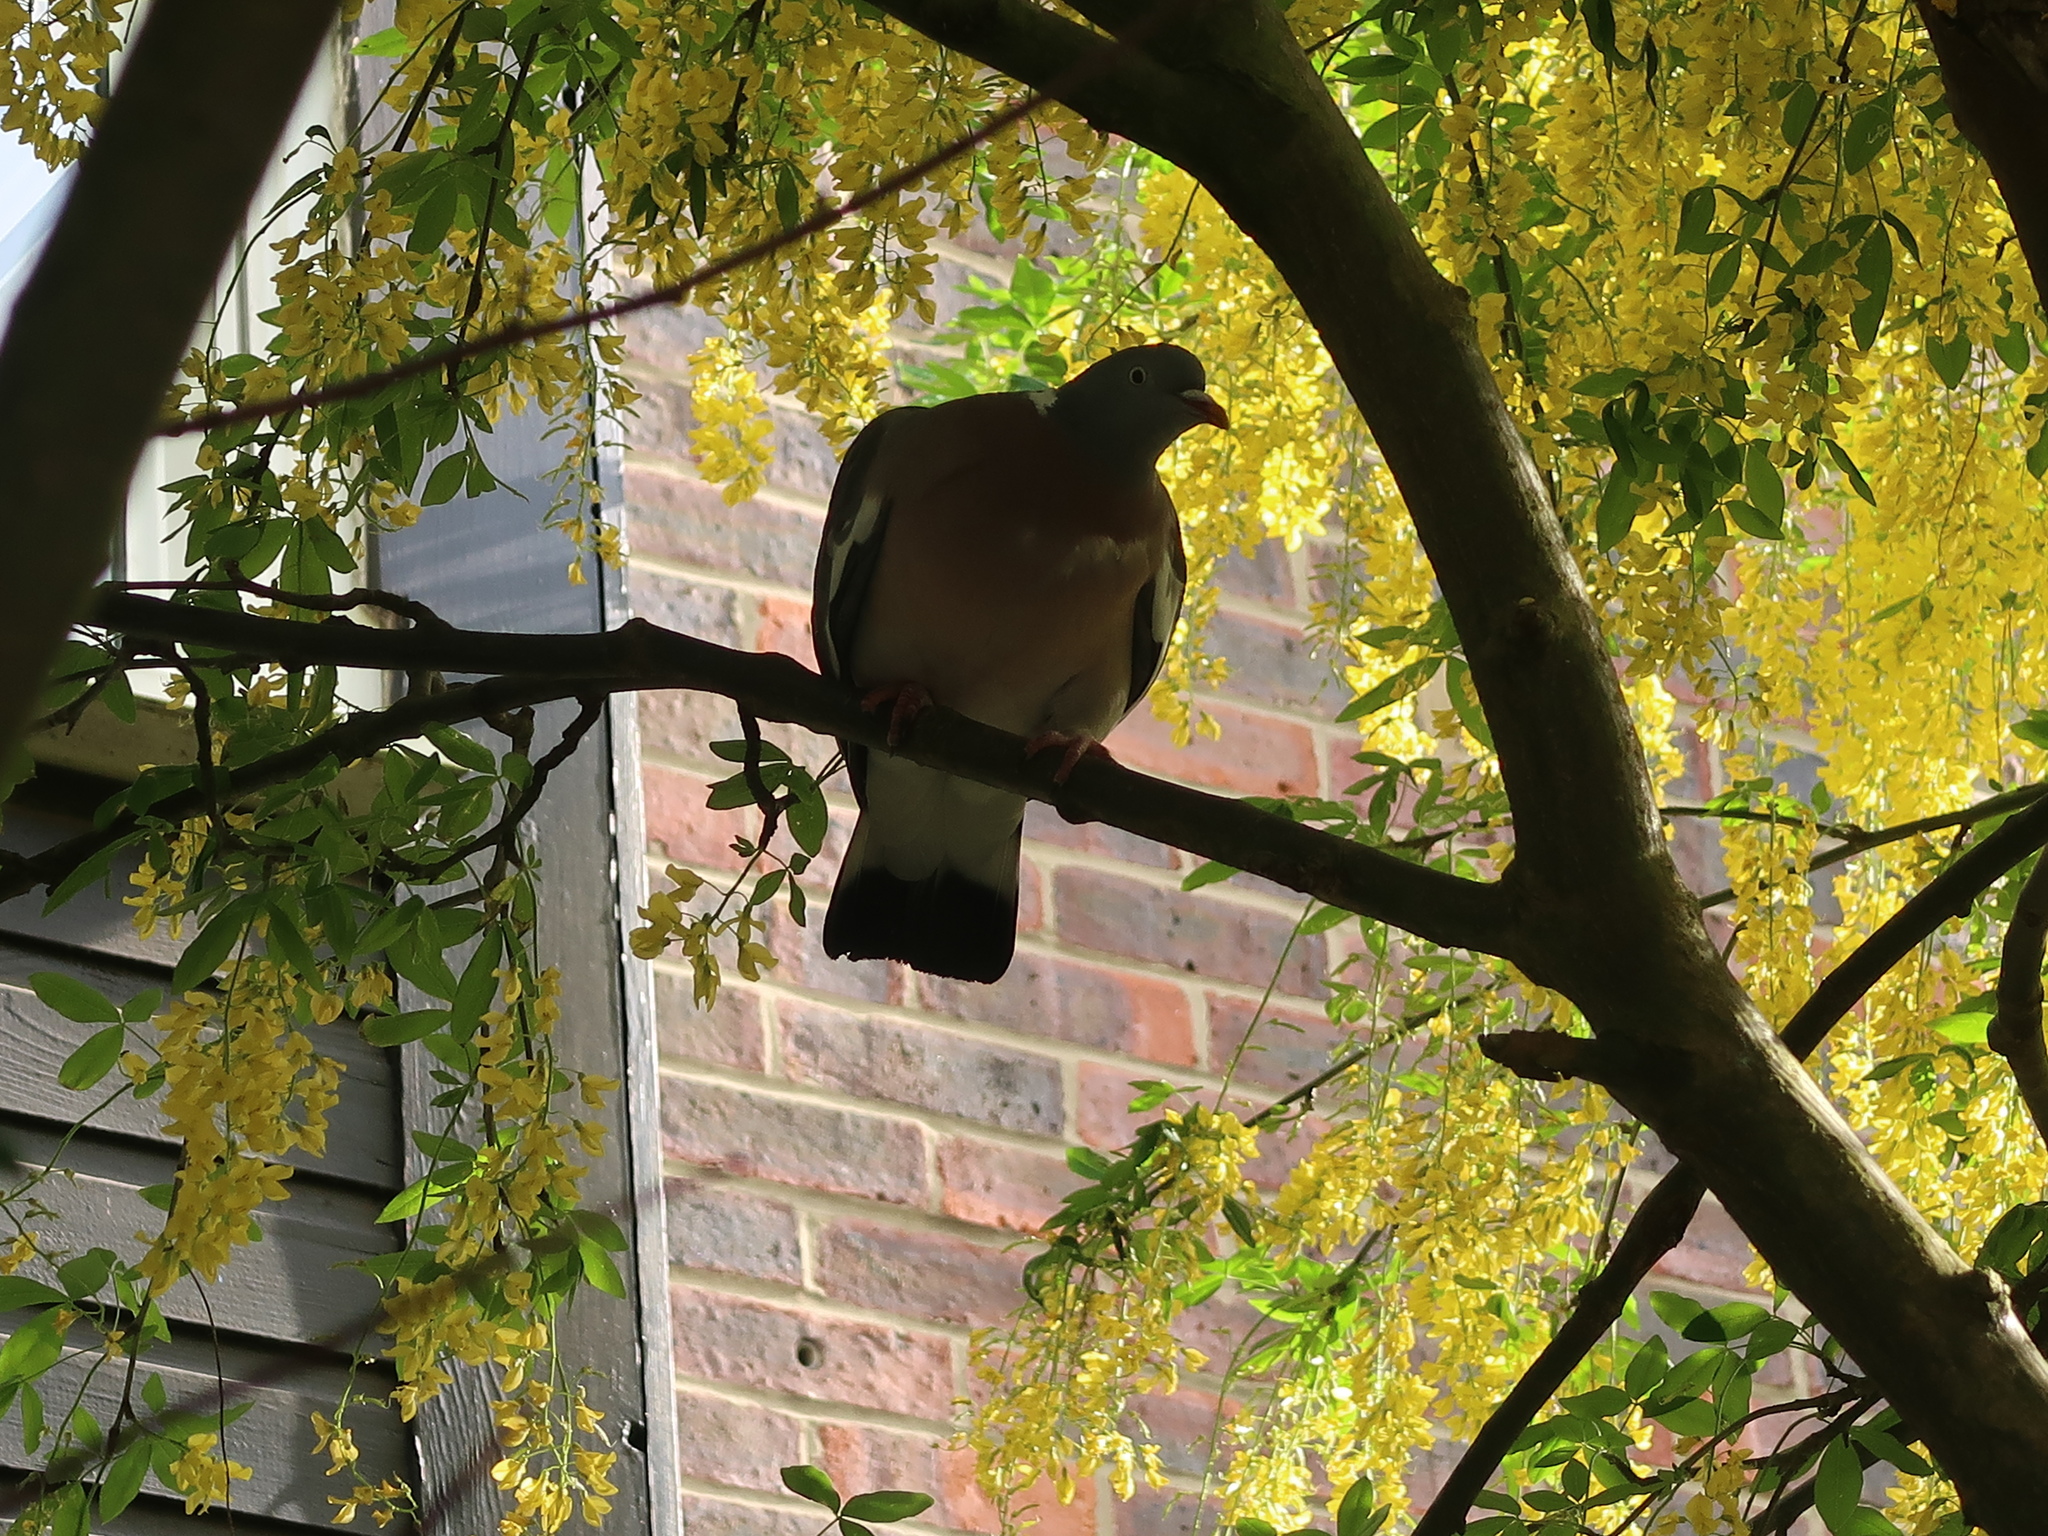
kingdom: Animalia
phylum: Chordata
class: Aves
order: Columbiformes
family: Columbidae
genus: Columba
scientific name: Columba palumbus
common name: Common wood pigeon
